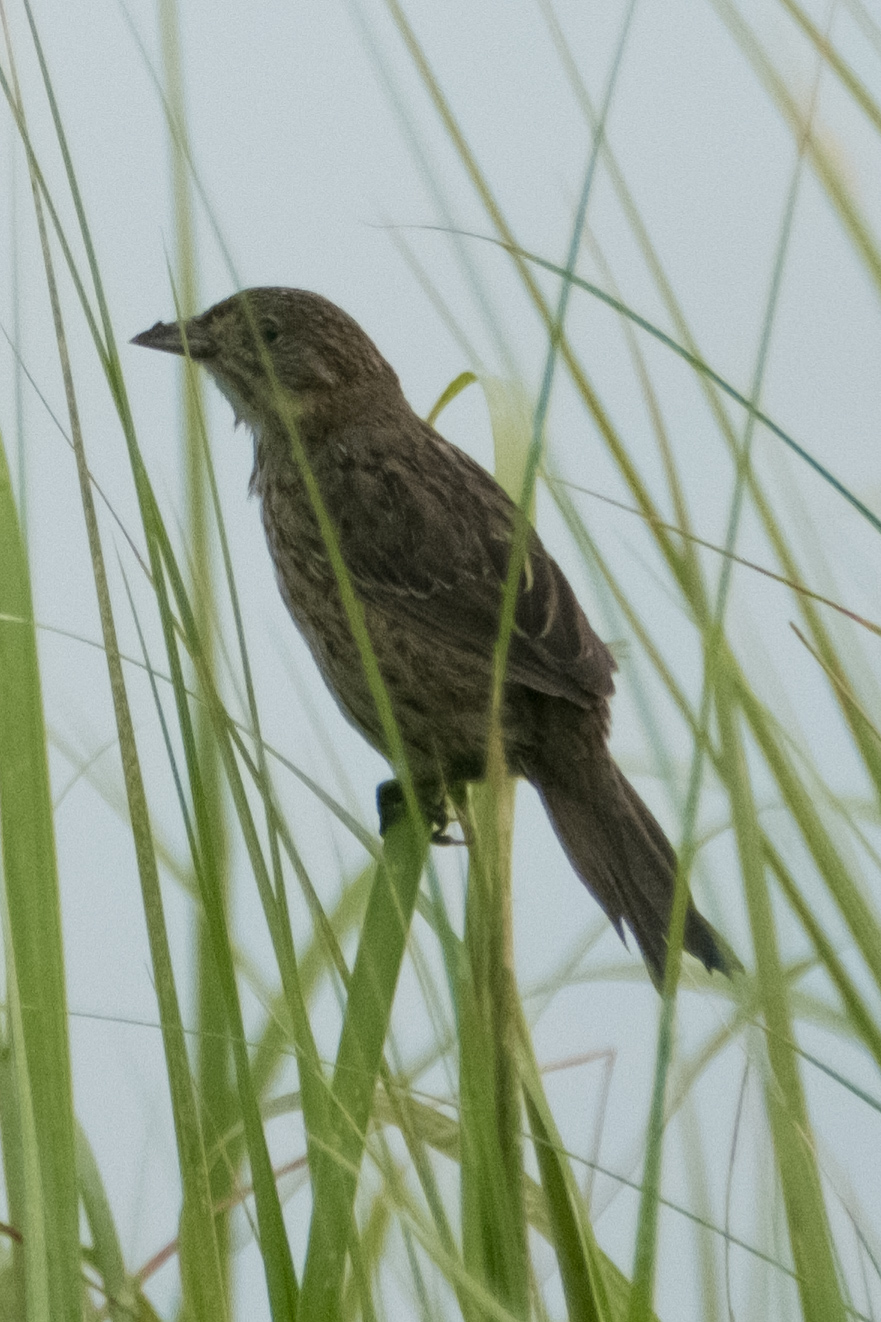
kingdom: Animalia
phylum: Chordata
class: Aves
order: Passeriformes
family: Passerellidae
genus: Ammospiza
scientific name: Ammospiza maritima
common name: Seaside sparrow
